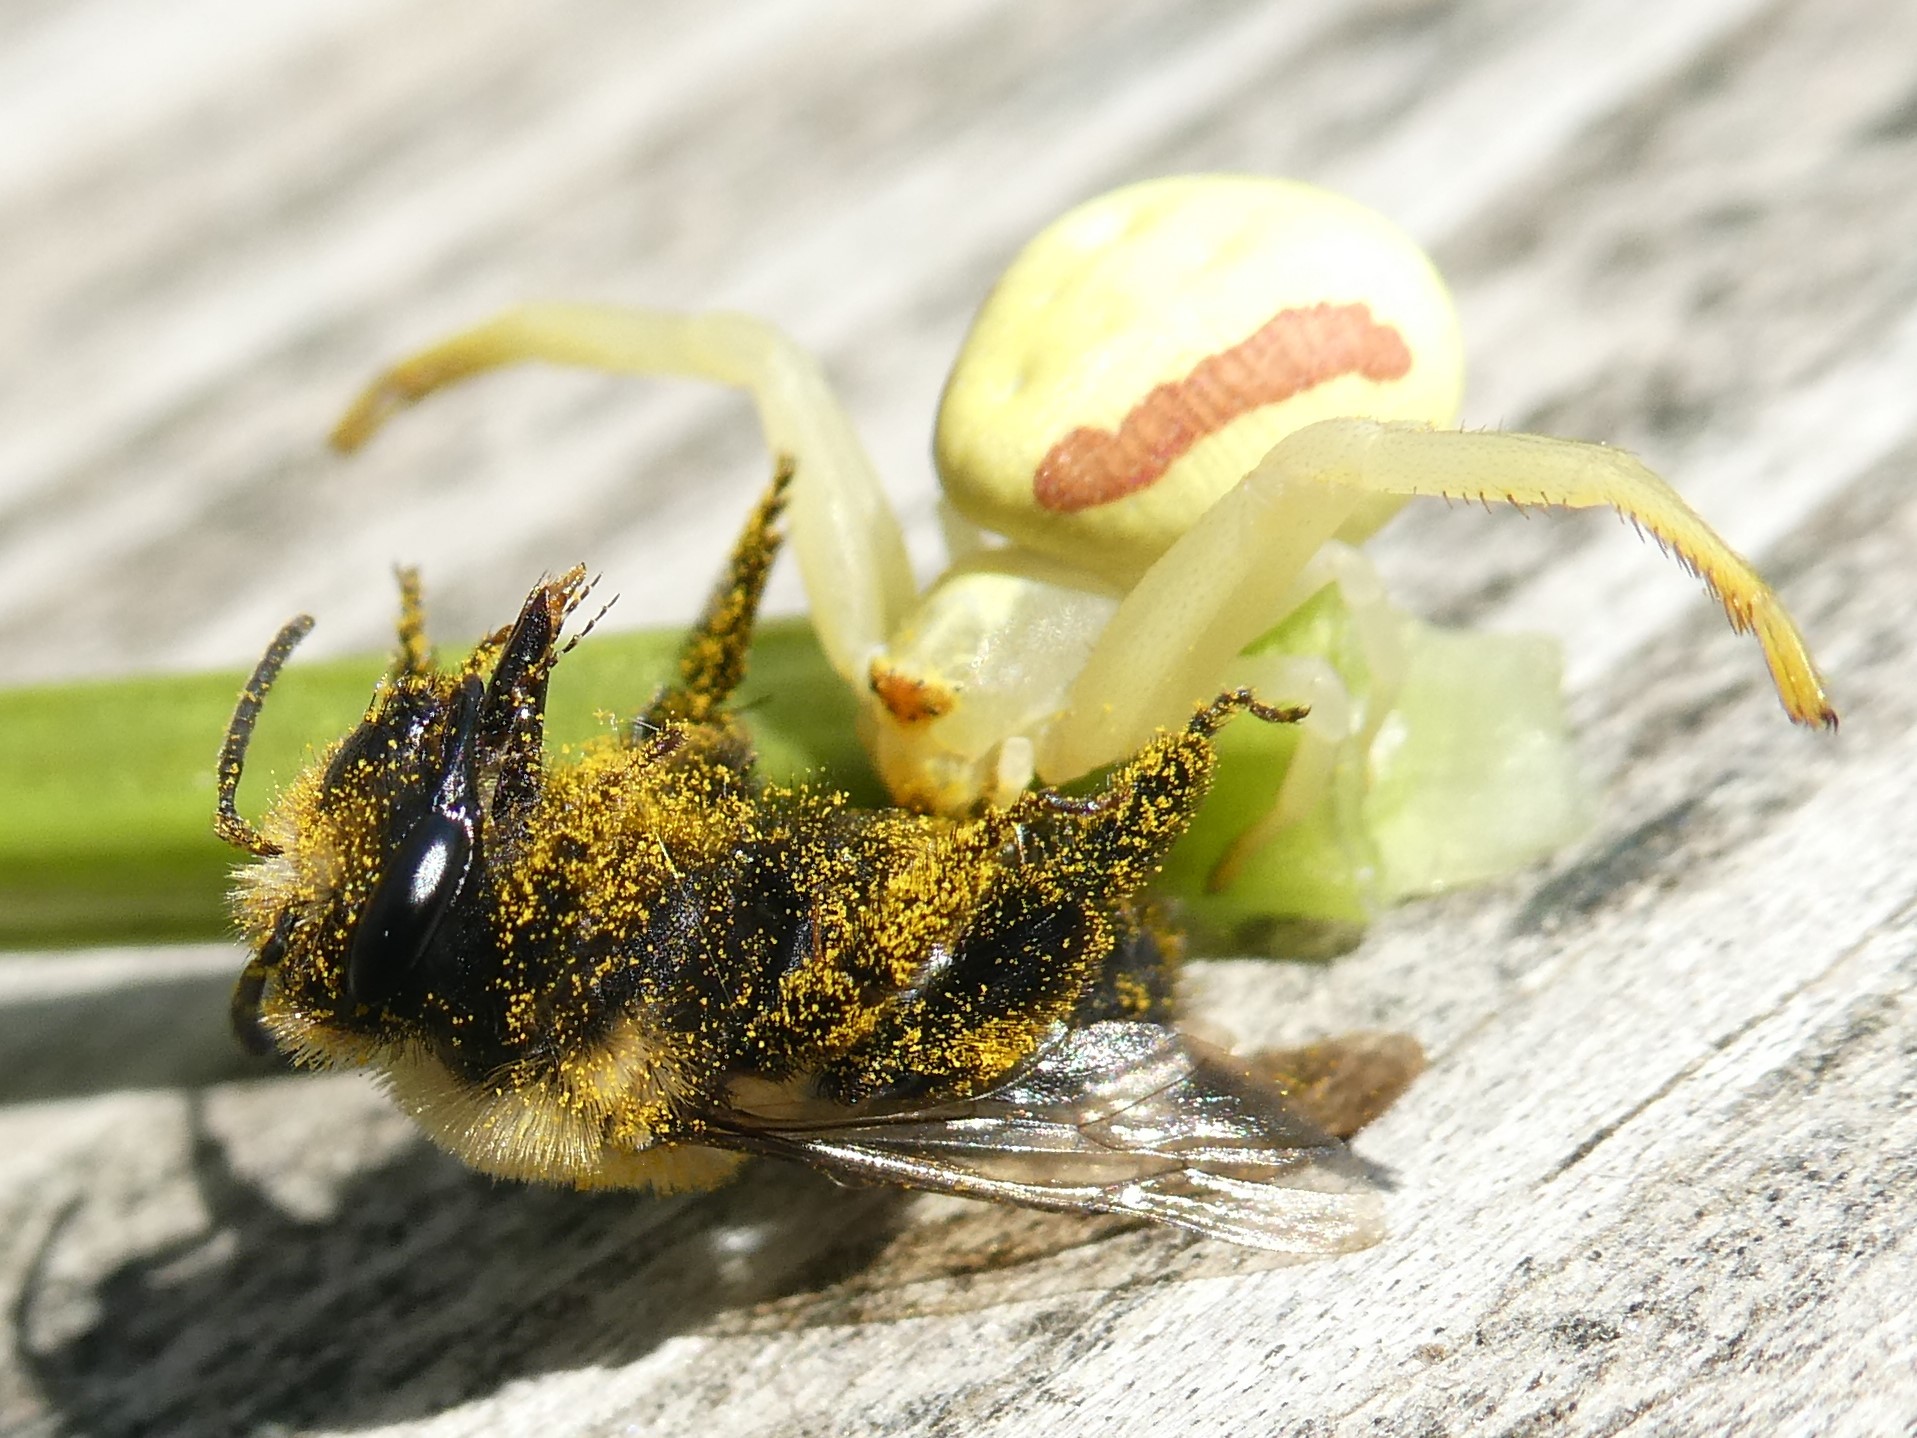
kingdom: Animalia
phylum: Arthropoda
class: Arachnida
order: Araneae
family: Thomisidae
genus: Misumena
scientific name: Misumena vatia
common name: Goldenrod crab spider
